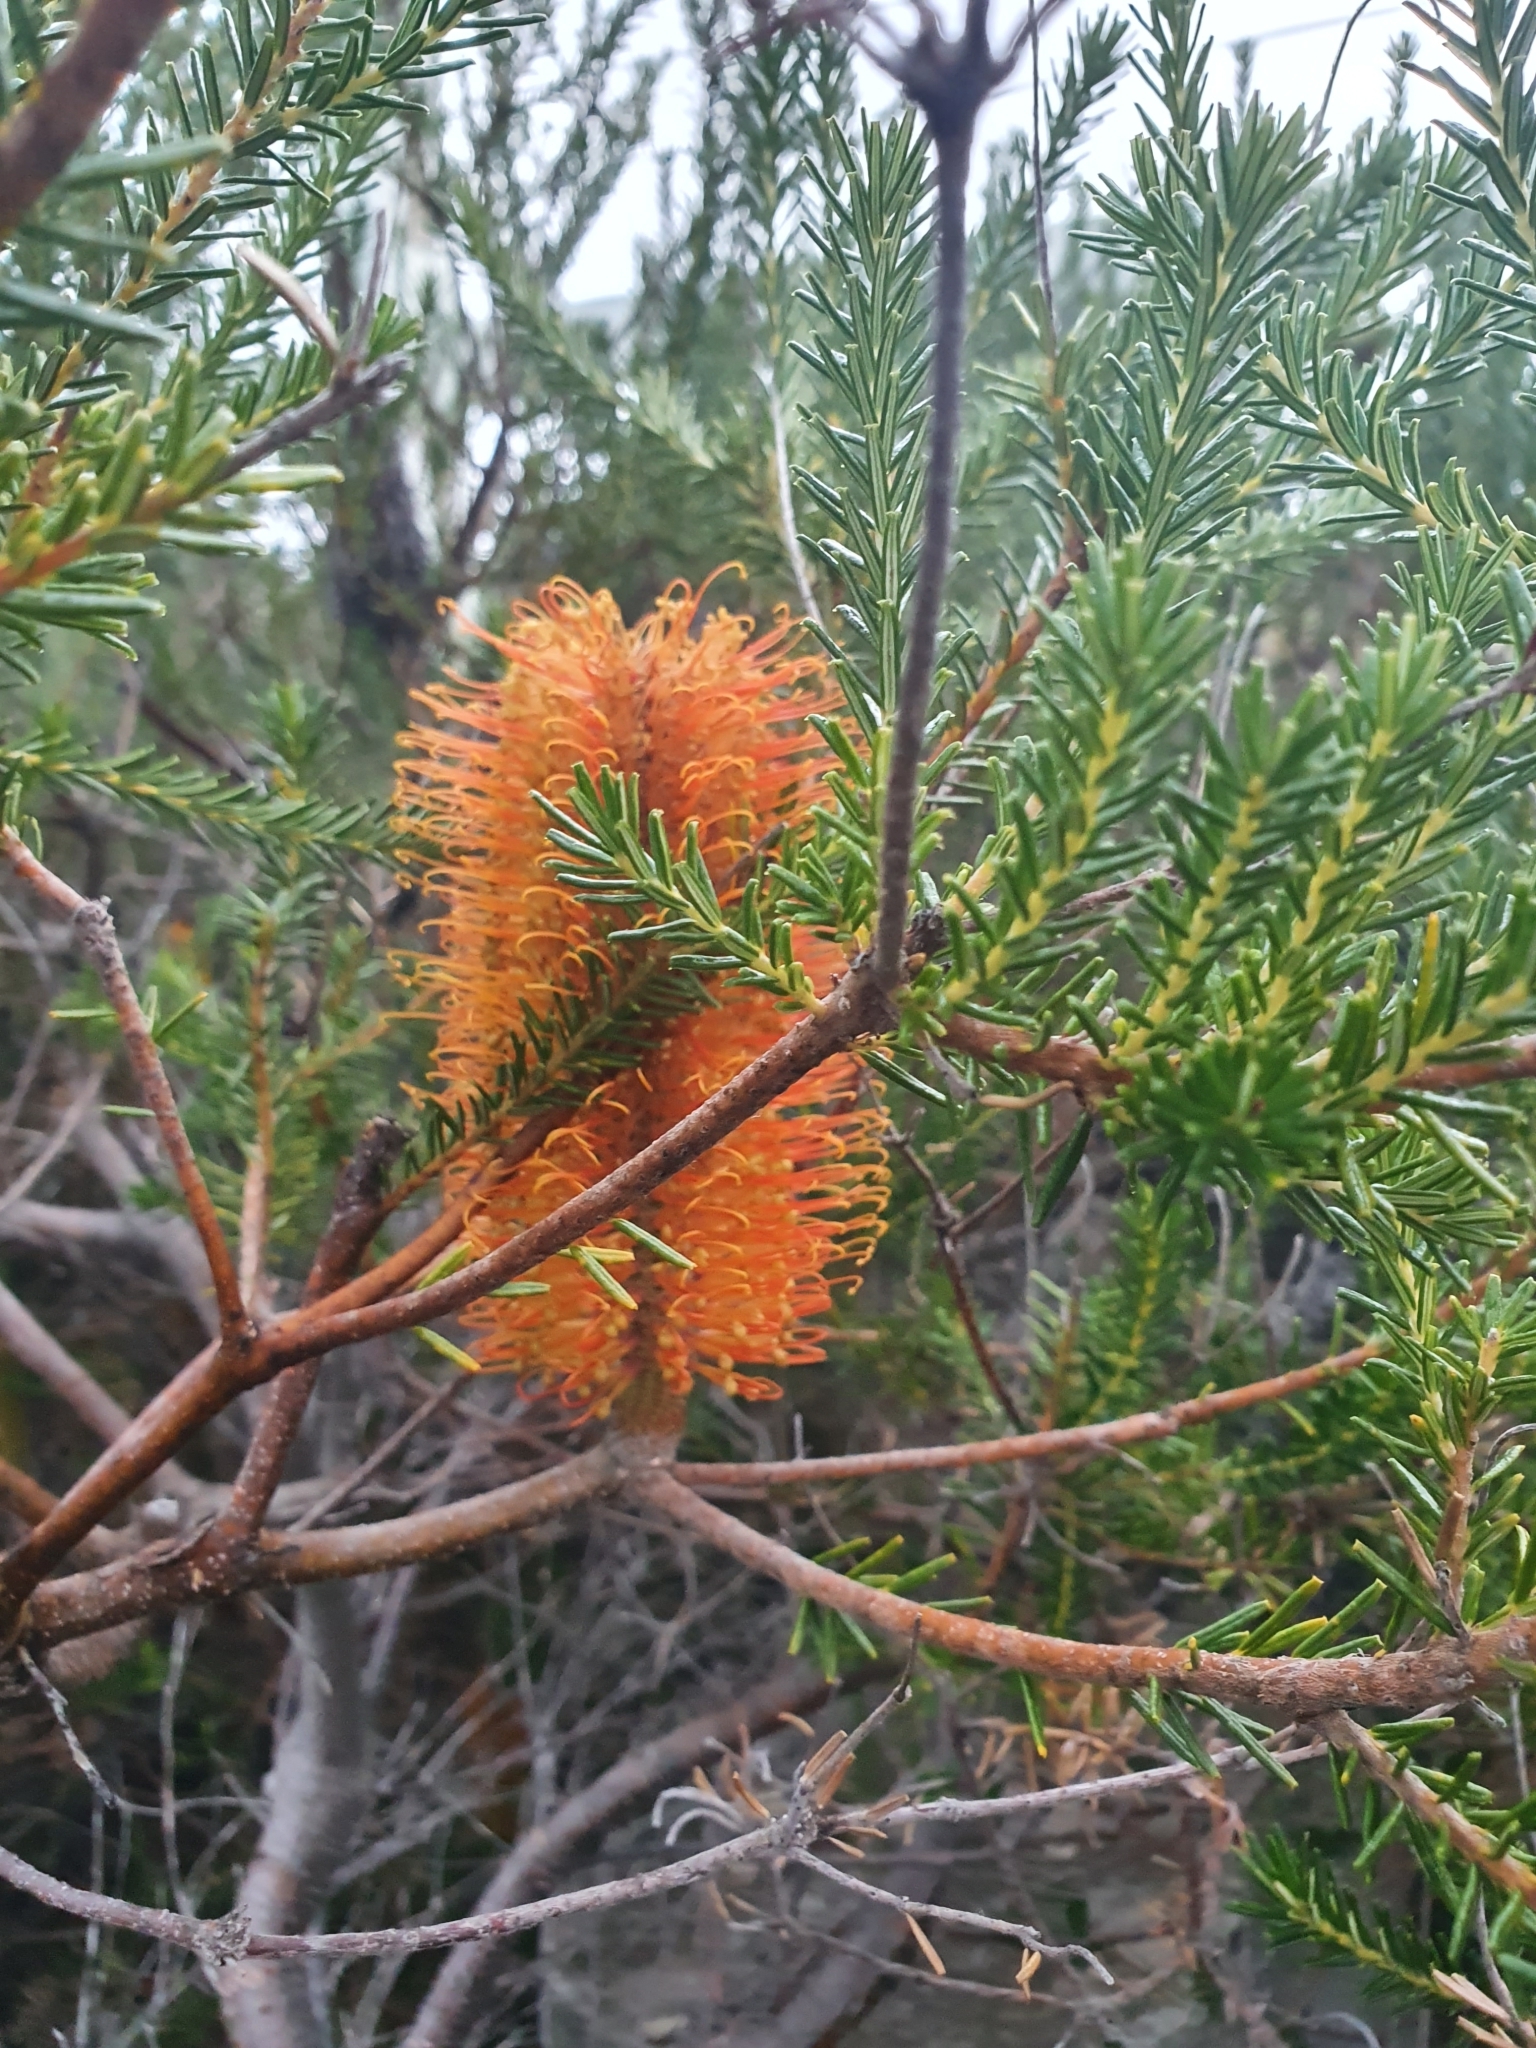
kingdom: Plantae
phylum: Tracheophyta
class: Magnoliopsida
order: Proteales
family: Proteaceae
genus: Banksia
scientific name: Banksia ericifolia
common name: Heath-leaf banksia
